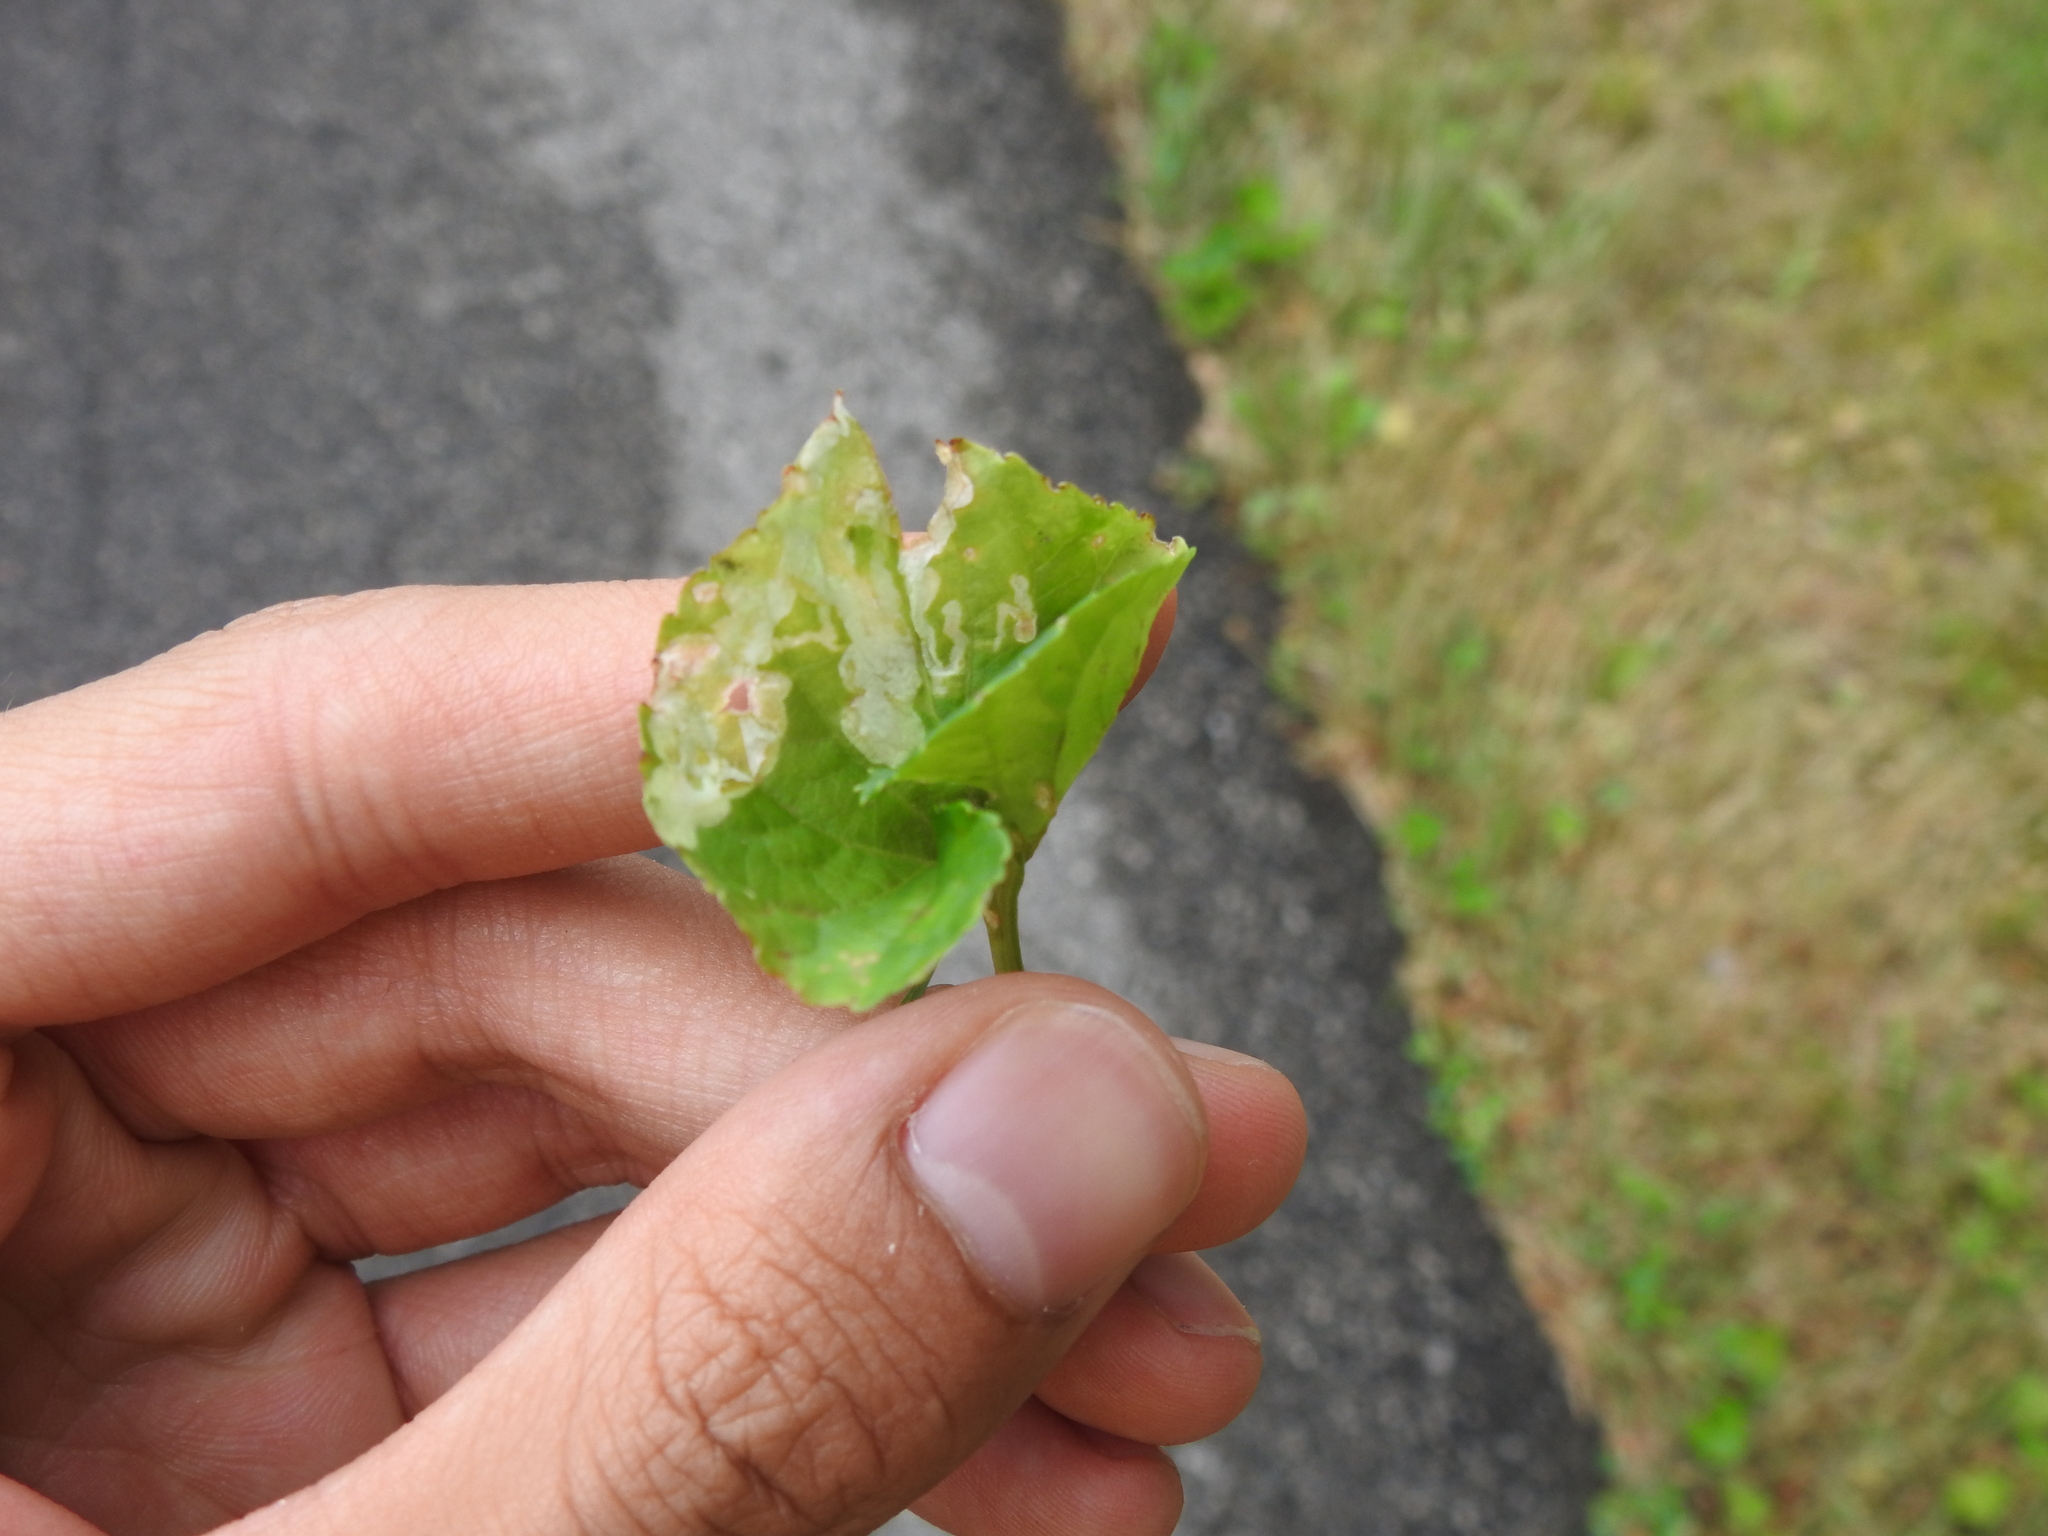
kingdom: Animalia
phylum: Arthropoda
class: Insecta
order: Diptera
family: Agromyzidae
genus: Liriomyza
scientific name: Liriomyza violivora
